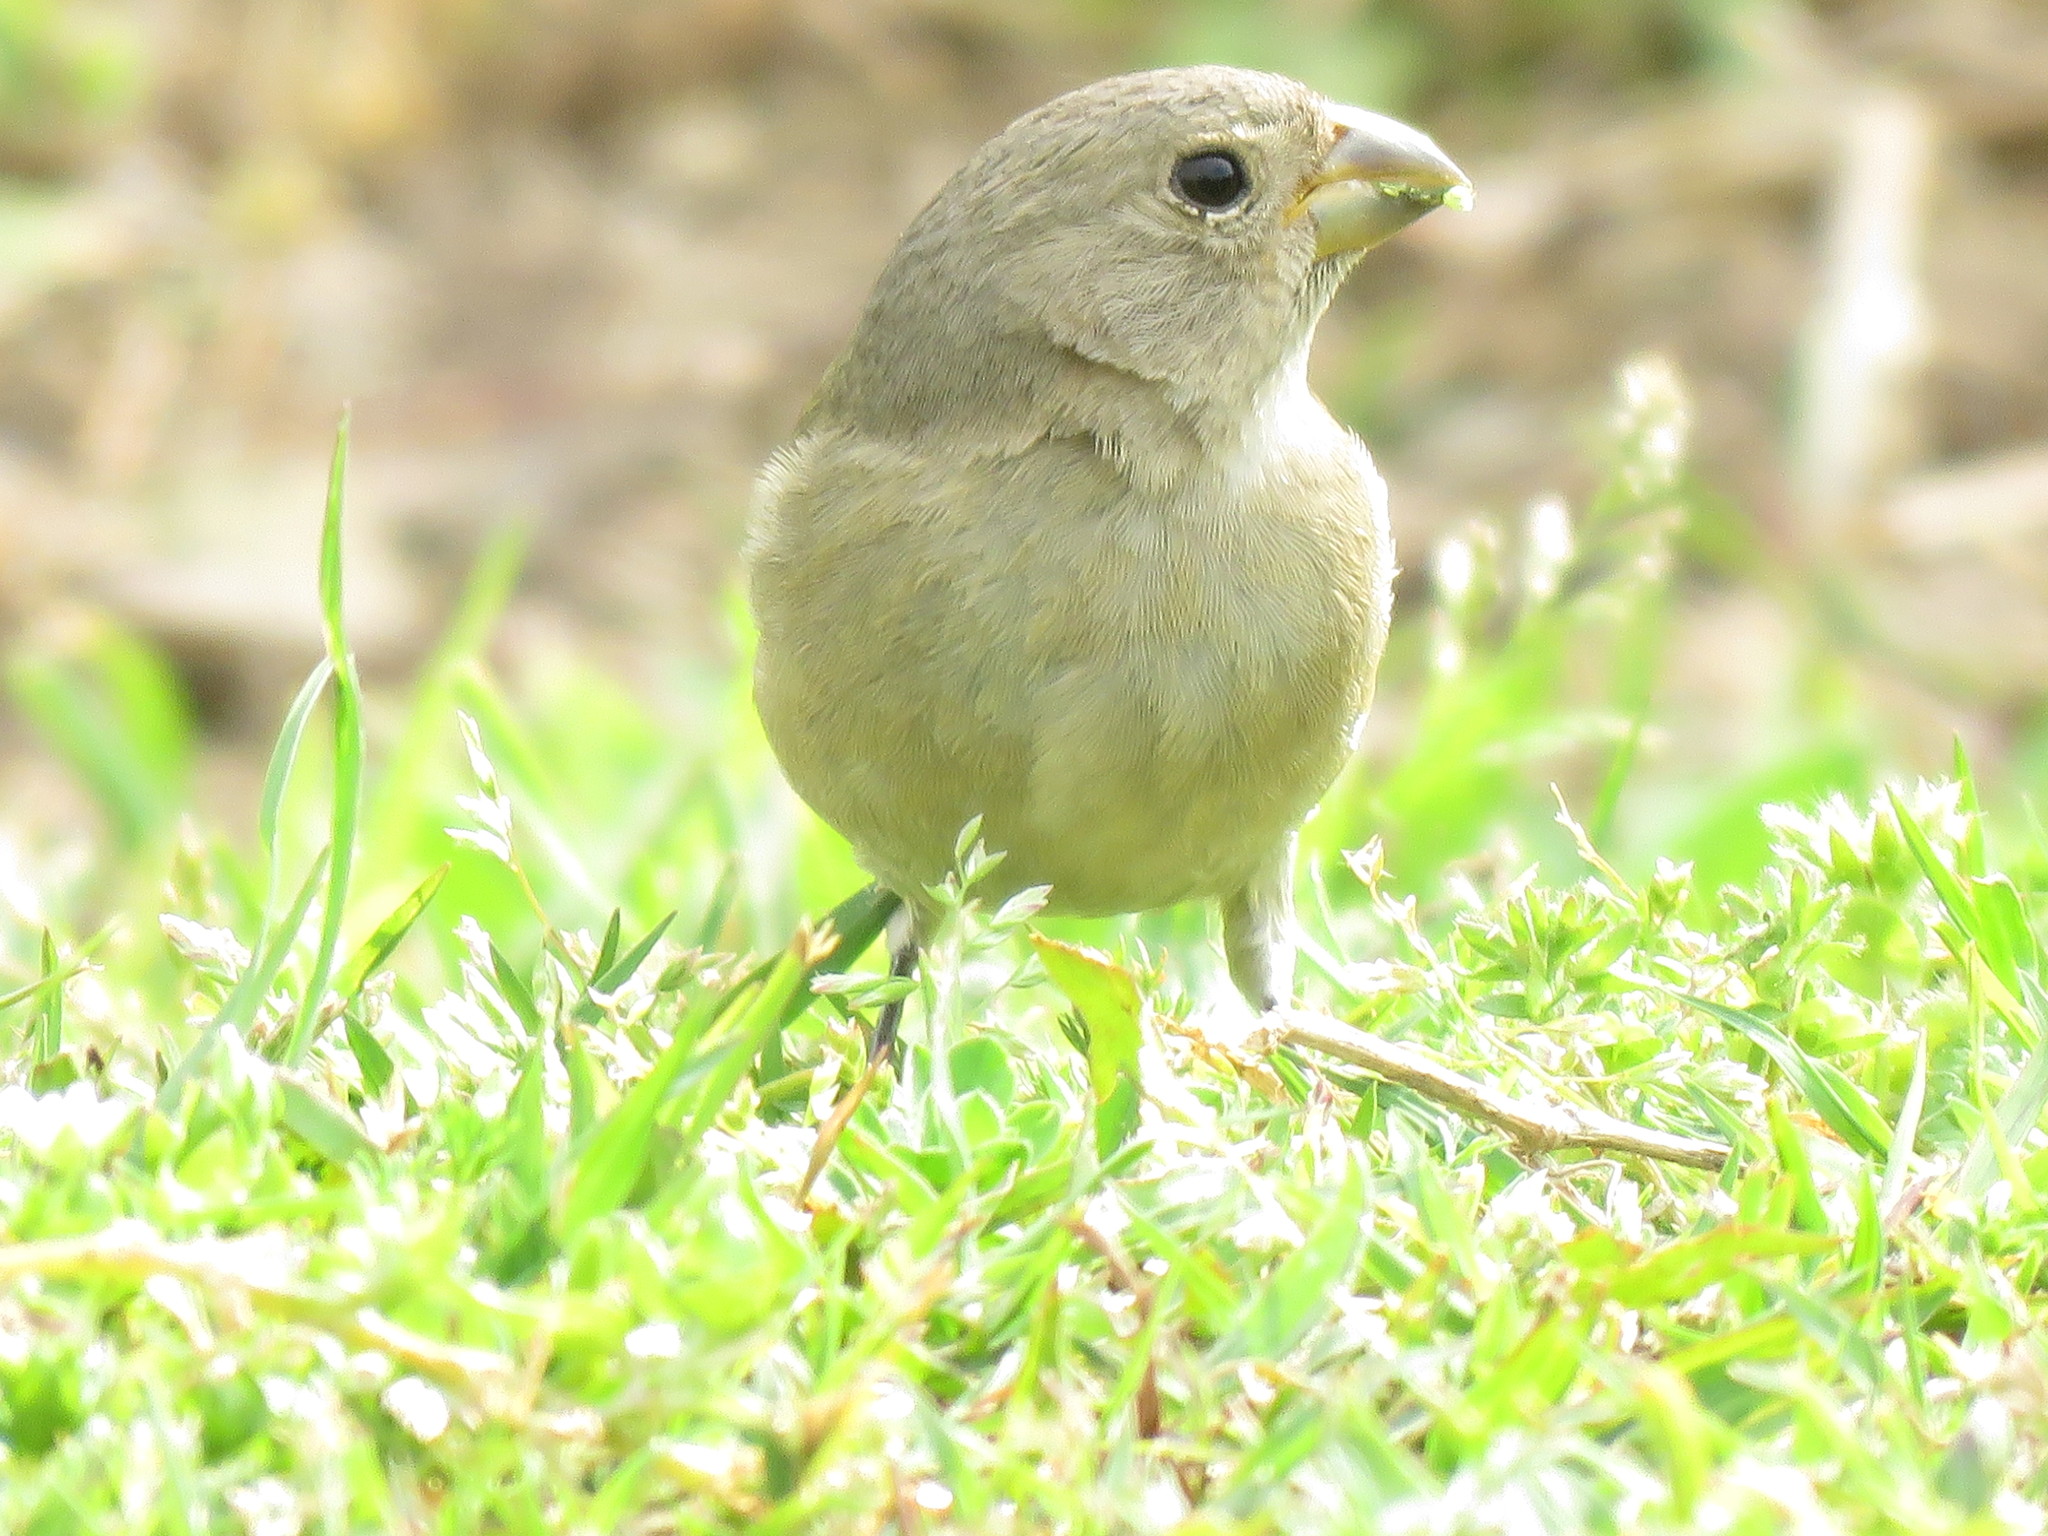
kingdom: Animalia
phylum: Chordata
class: Aves
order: Passeriformes
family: Thraupidae
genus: Sporophila
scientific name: Sporophila caerulescens
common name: Double-collared seedeater
